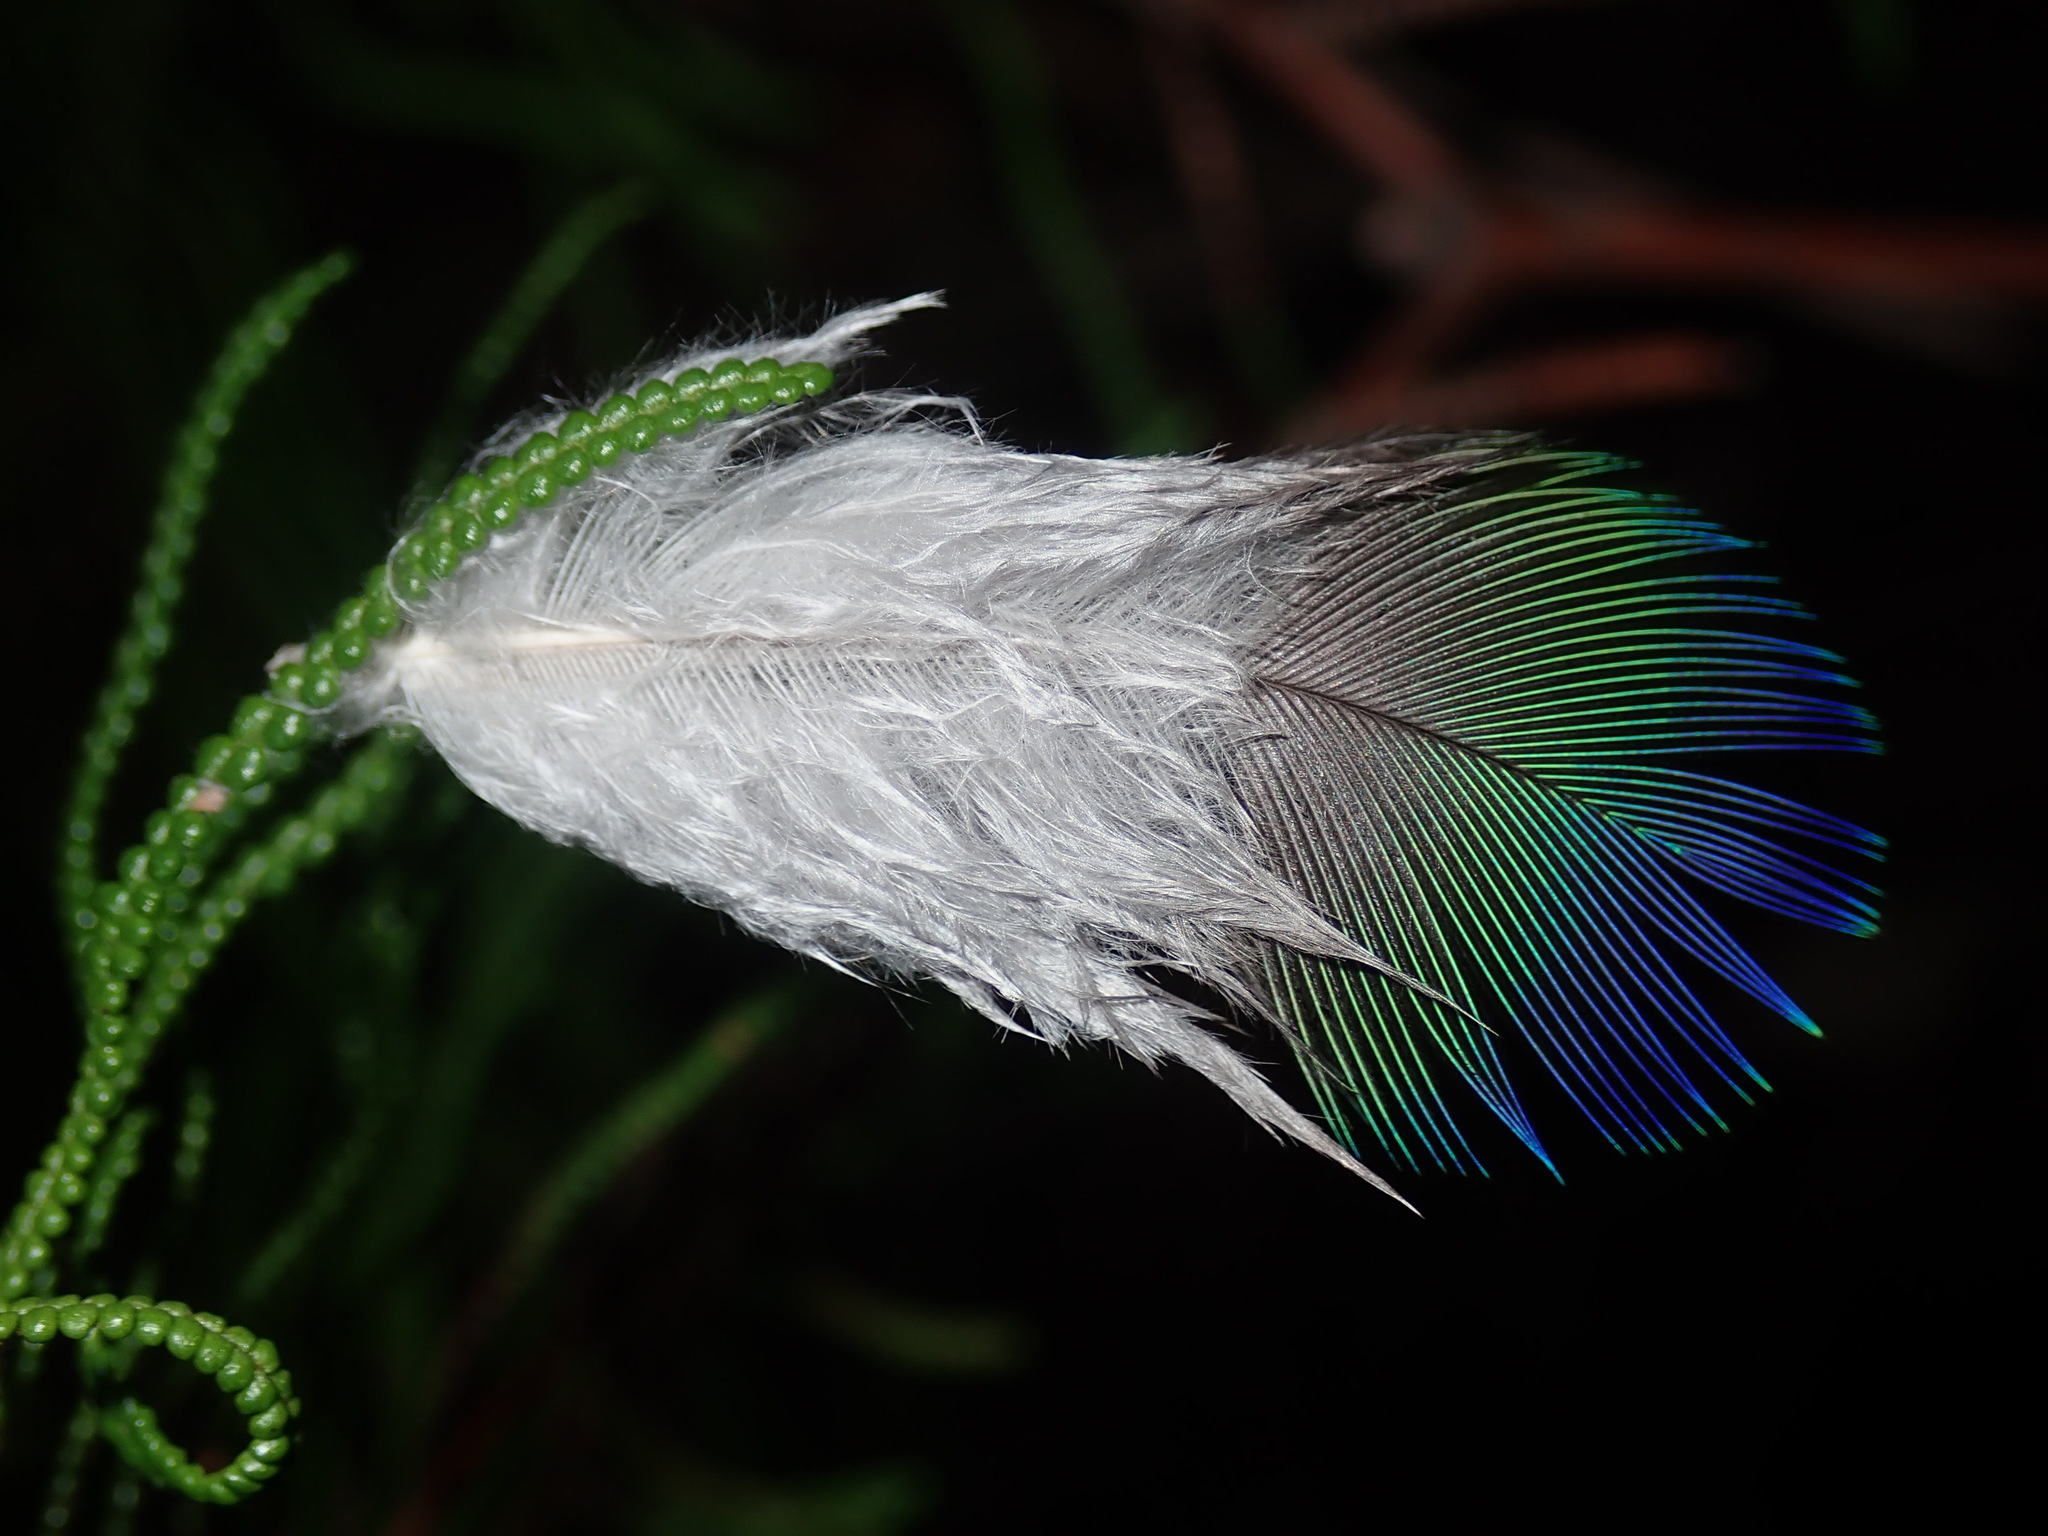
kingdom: Animalia
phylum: Chordata
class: Aves
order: Psittaciformes
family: Psittacidae
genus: Alisterus
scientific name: Alisterus scapularis
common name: Australian king parrot
